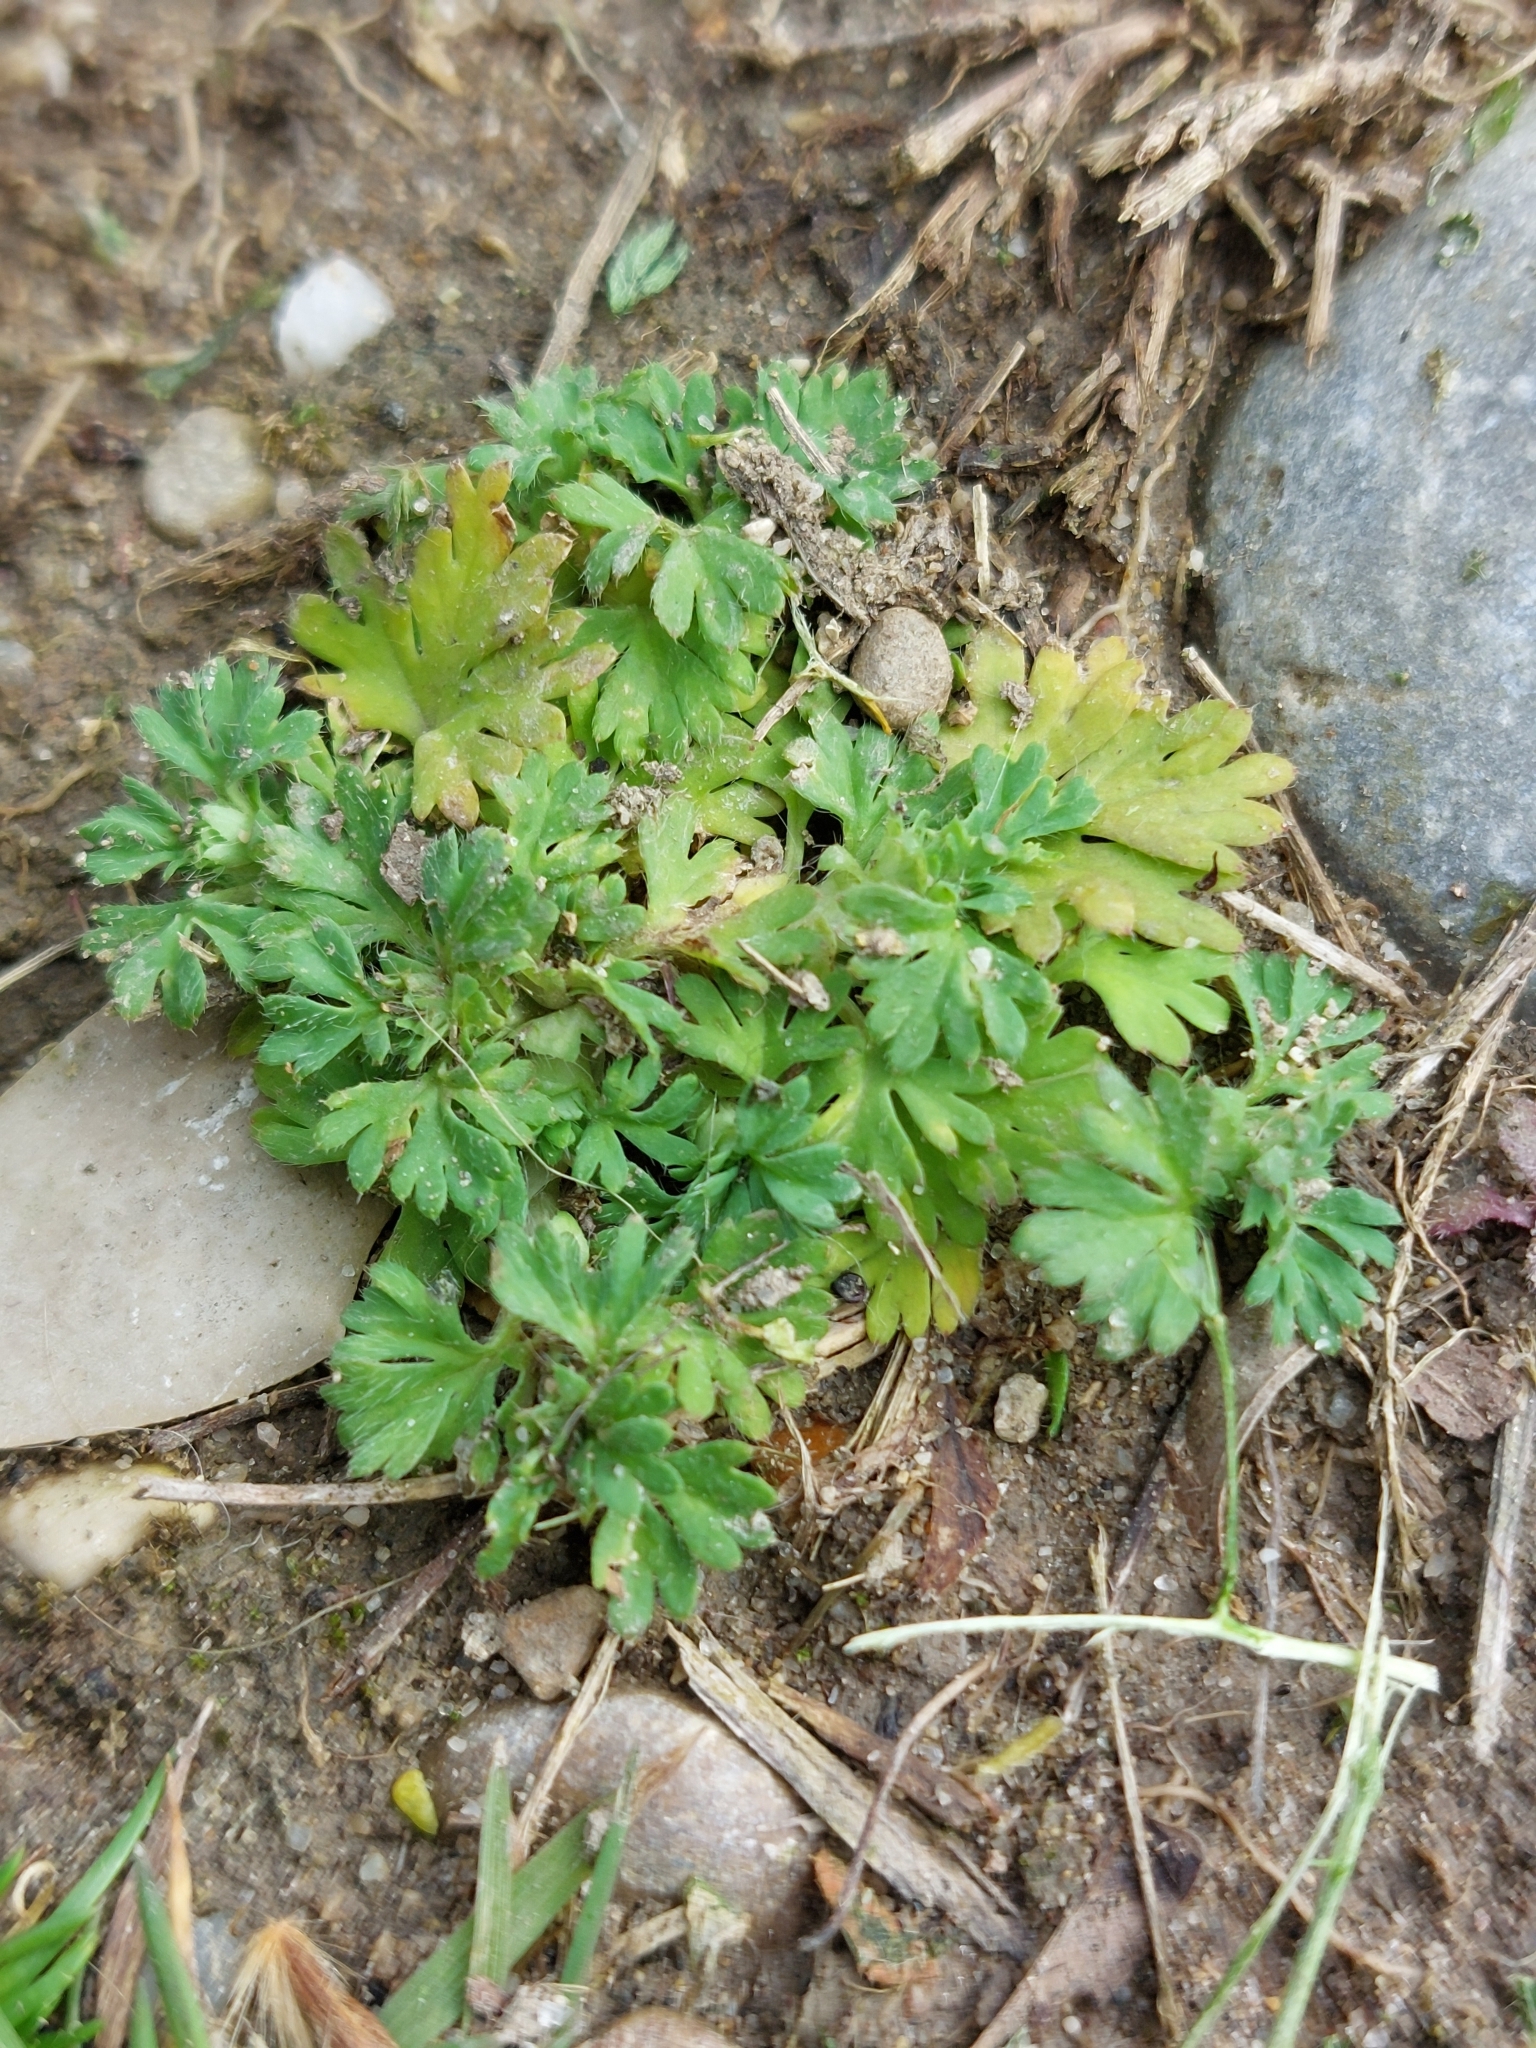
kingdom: Plantae
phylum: Tracheophyta
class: Magnoliopsida
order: Rosales
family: Rosaceae
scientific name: Rosaceae
